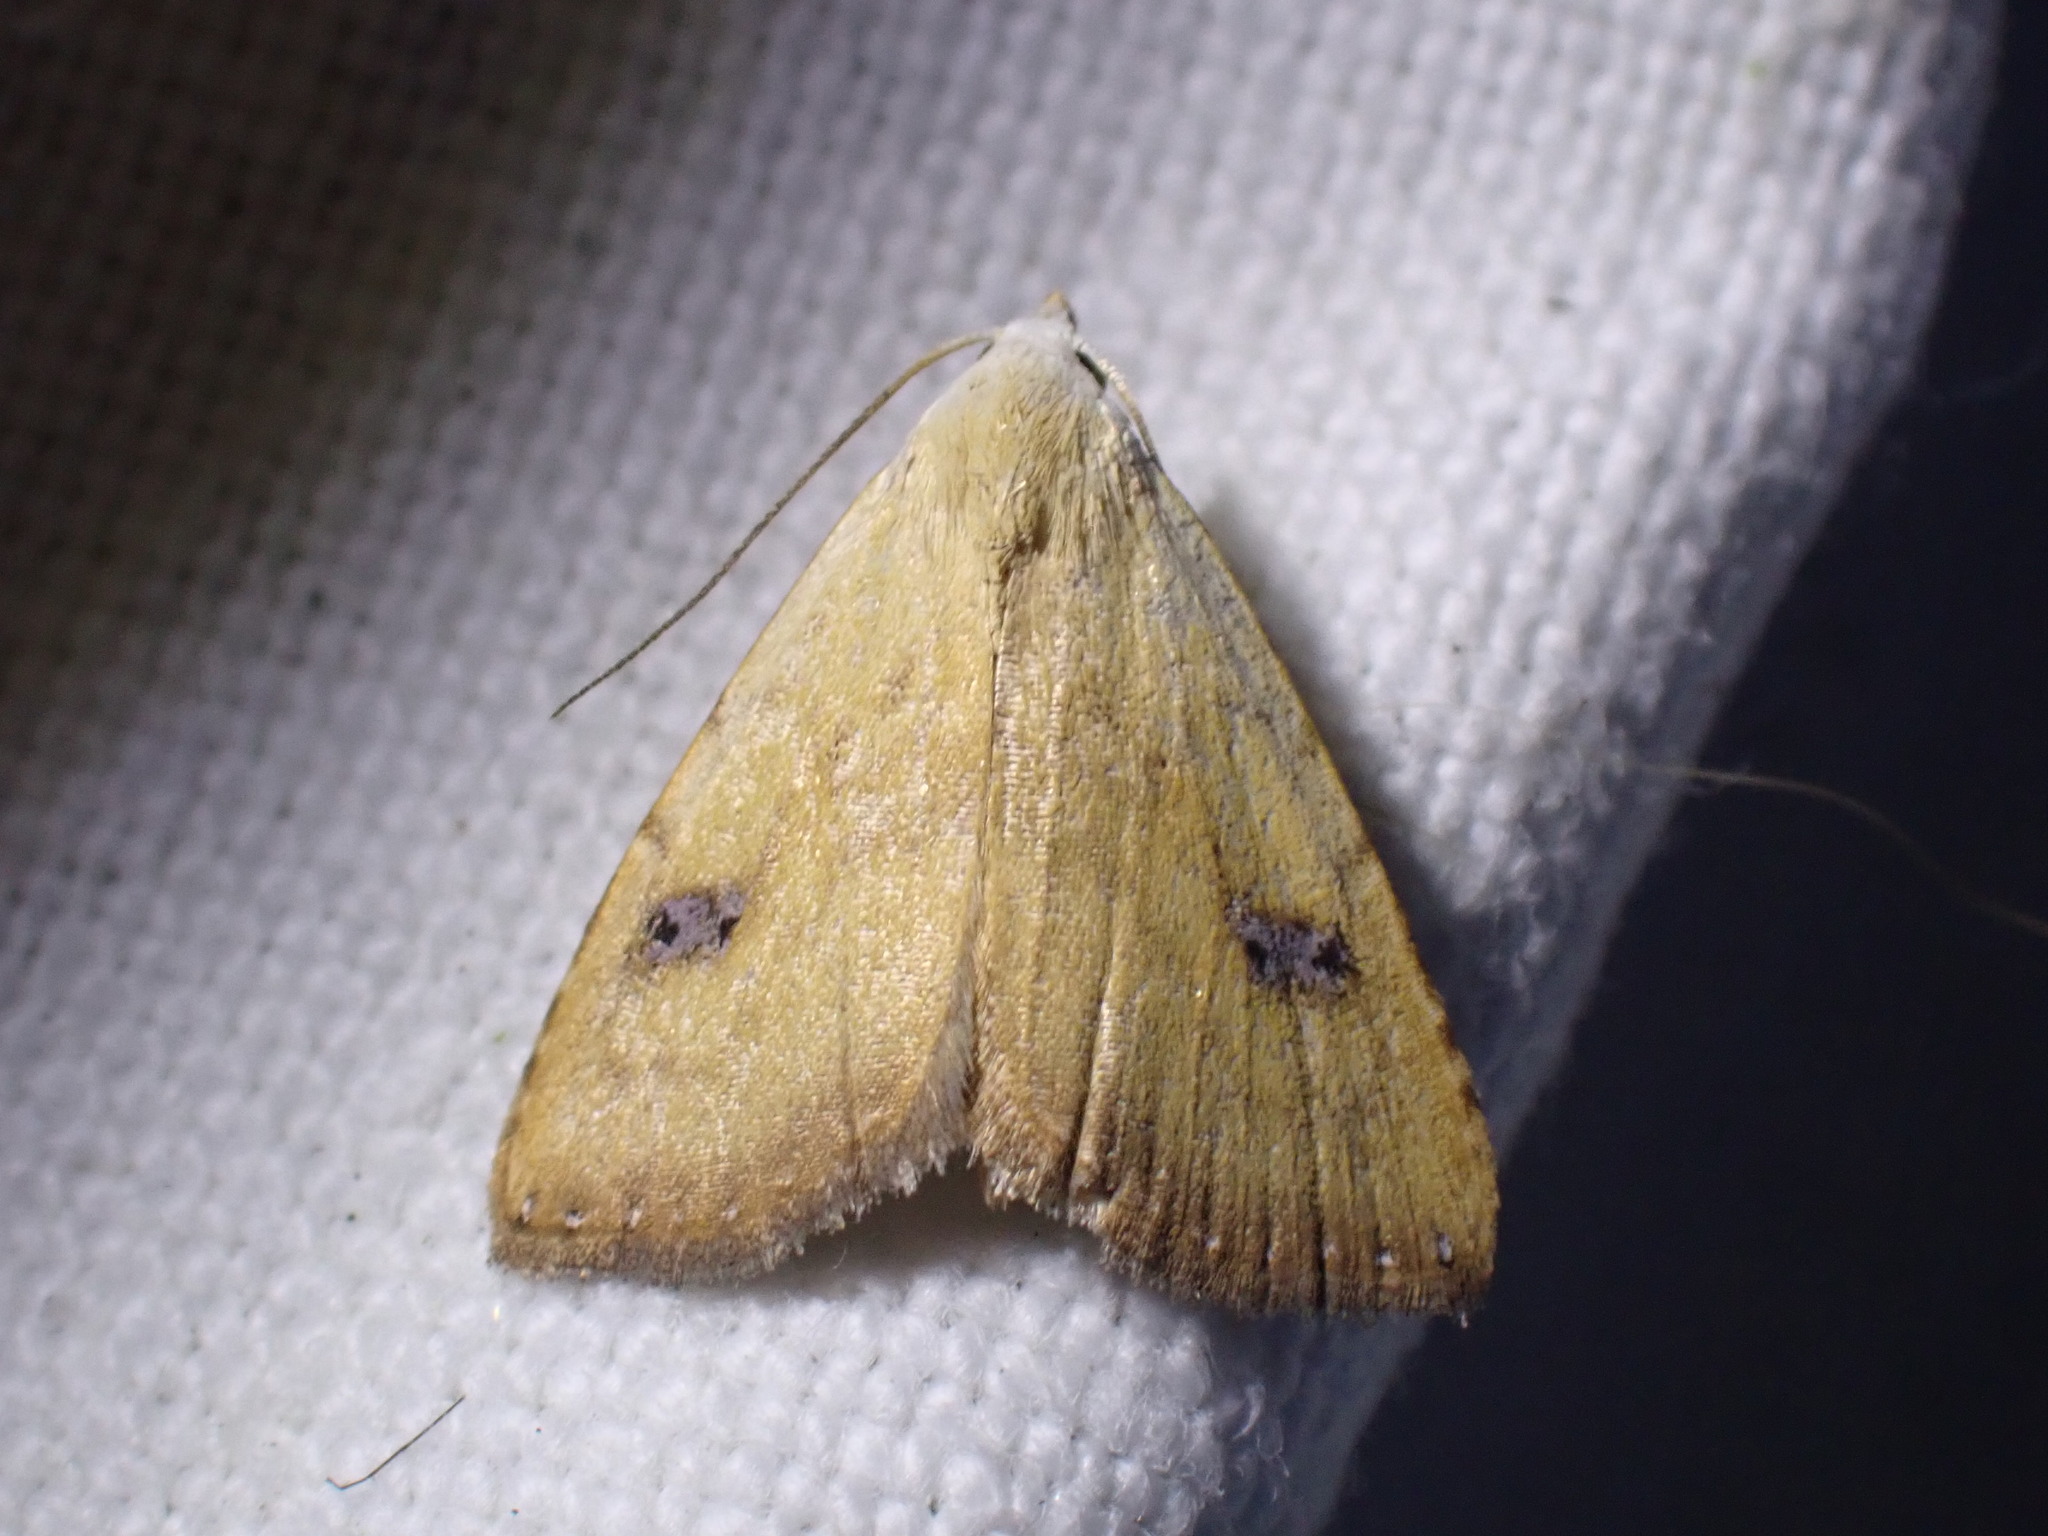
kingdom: Animalia
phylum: Arthropoda
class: Insecta
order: Lepidoptera
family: Erebidae
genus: Rivula
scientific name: Rivula sericealis
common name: Straw dot
